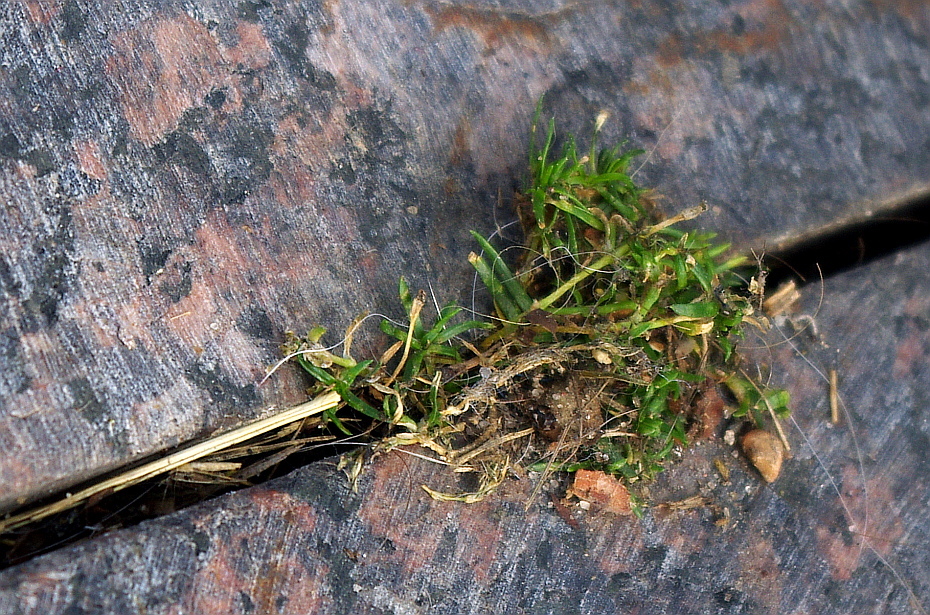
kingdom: Plantae
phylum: Tracheophyta
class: Magnoliopsida
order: Caryophyllales
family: Caryophyllaceae
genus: Sagina
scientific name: Sagina procumbens
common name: Procumbent pearlwort
